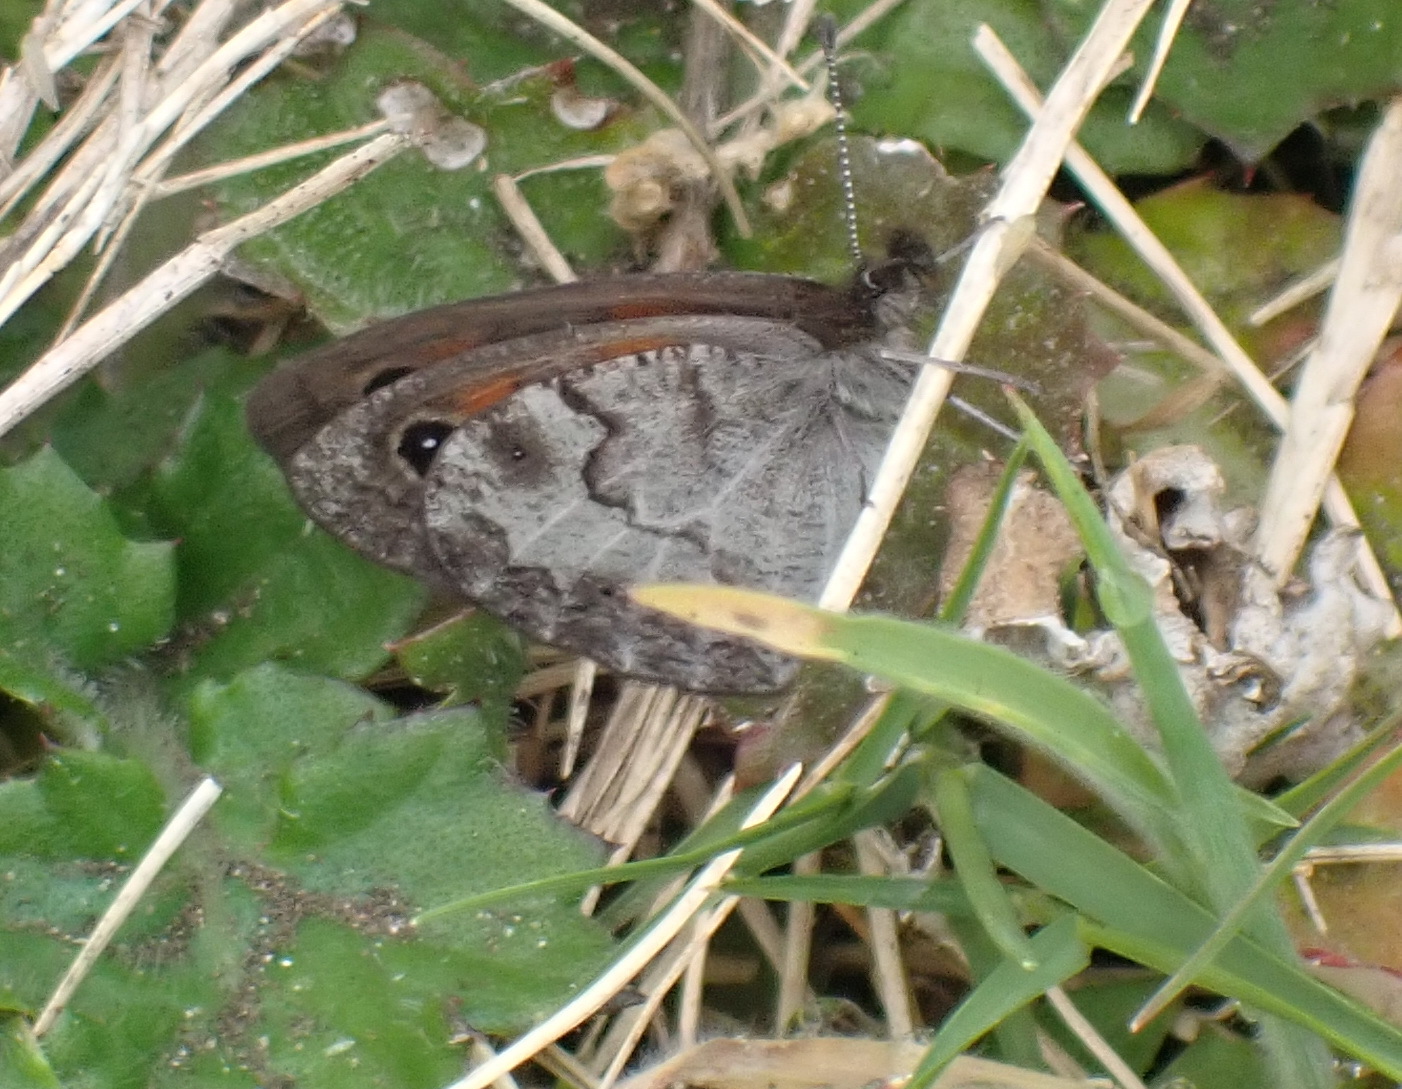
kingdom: Animalia
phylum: Arthropoda
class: Insecta
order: Lepidoptera
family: Nymphalidae
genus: Pseudonympha
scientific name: Pseudonympha magus
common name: Silver-bottom brown
